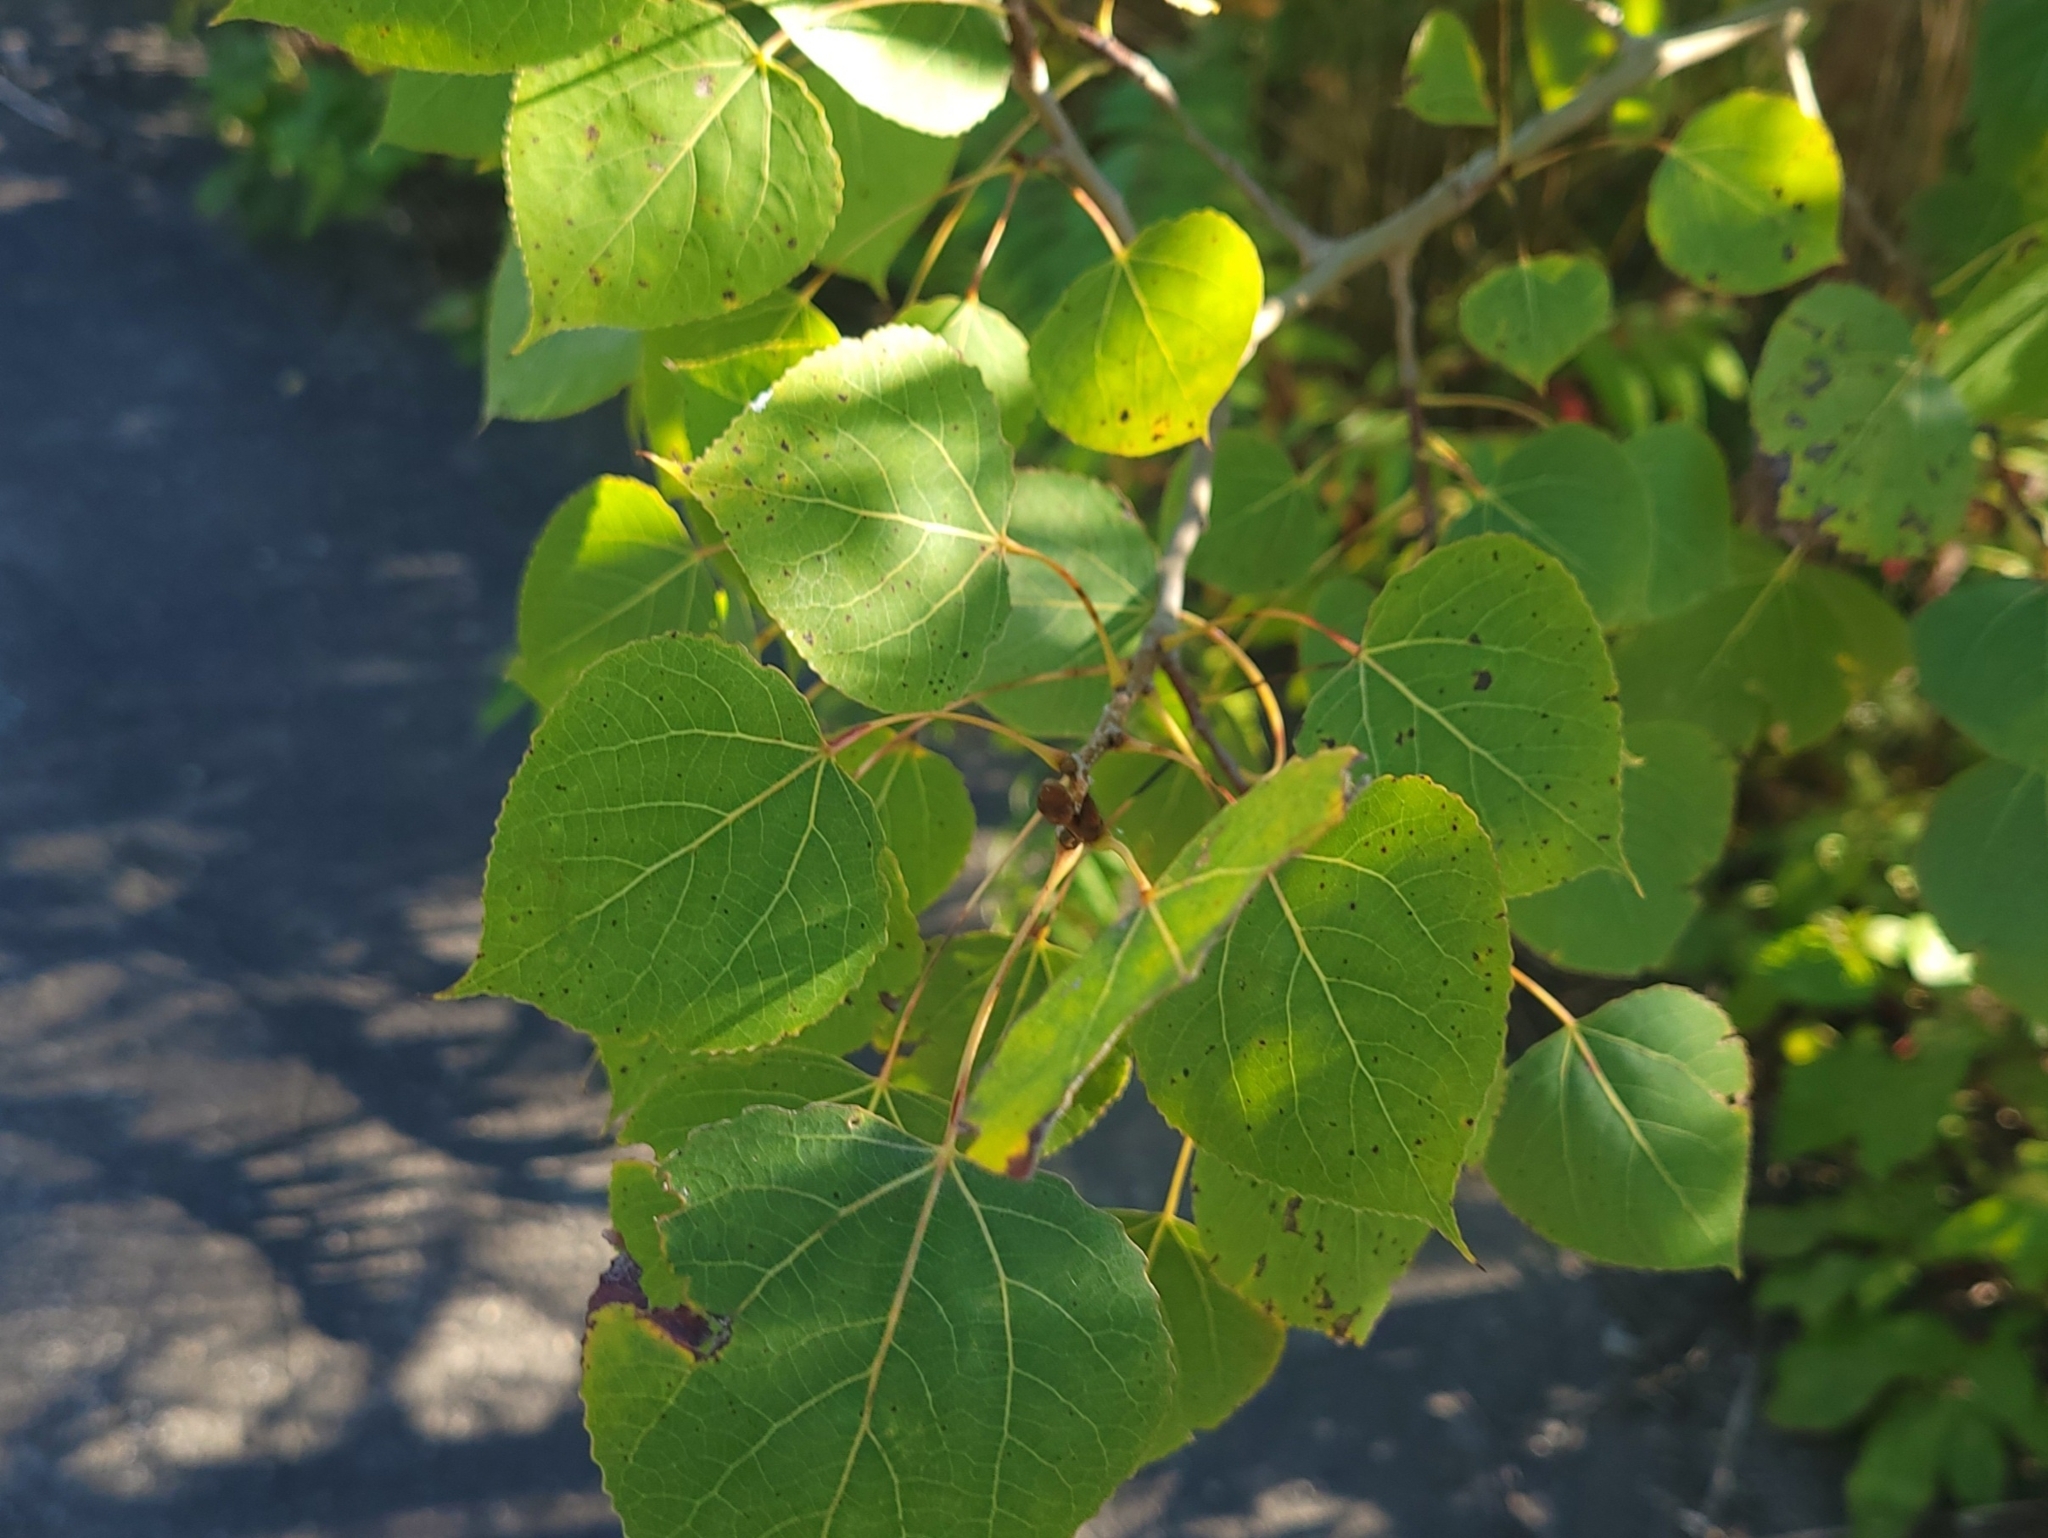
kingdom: Plantae
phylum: Tracheophyta
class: Magnoliopsida
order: Malpighiales
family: Salicaceae
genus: Populus
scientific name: Populus tremuloides
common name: Quaking aspen
